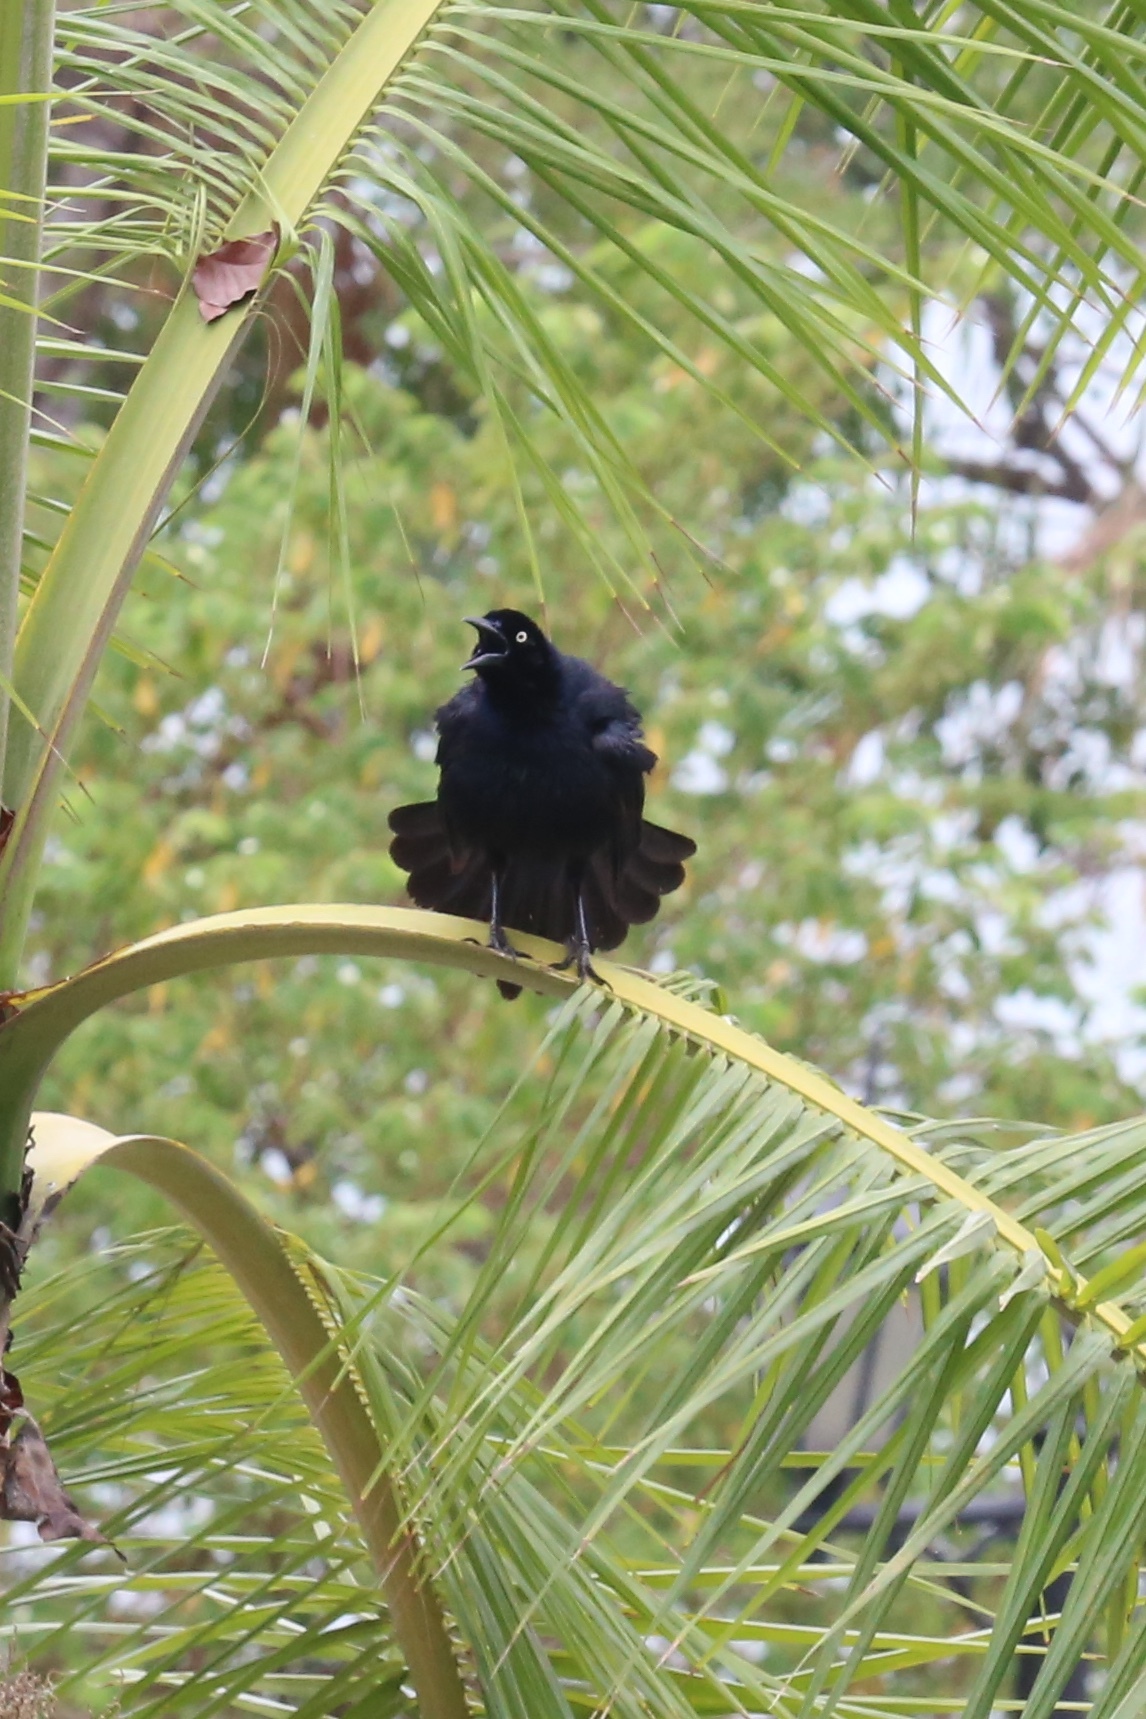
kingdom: Animalia
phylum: Chordata
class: Aves
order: Passeriformes
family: Icteridae
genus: Quiscalus
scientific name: Quiscalus mexicanus
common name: Great-tailed grackle
